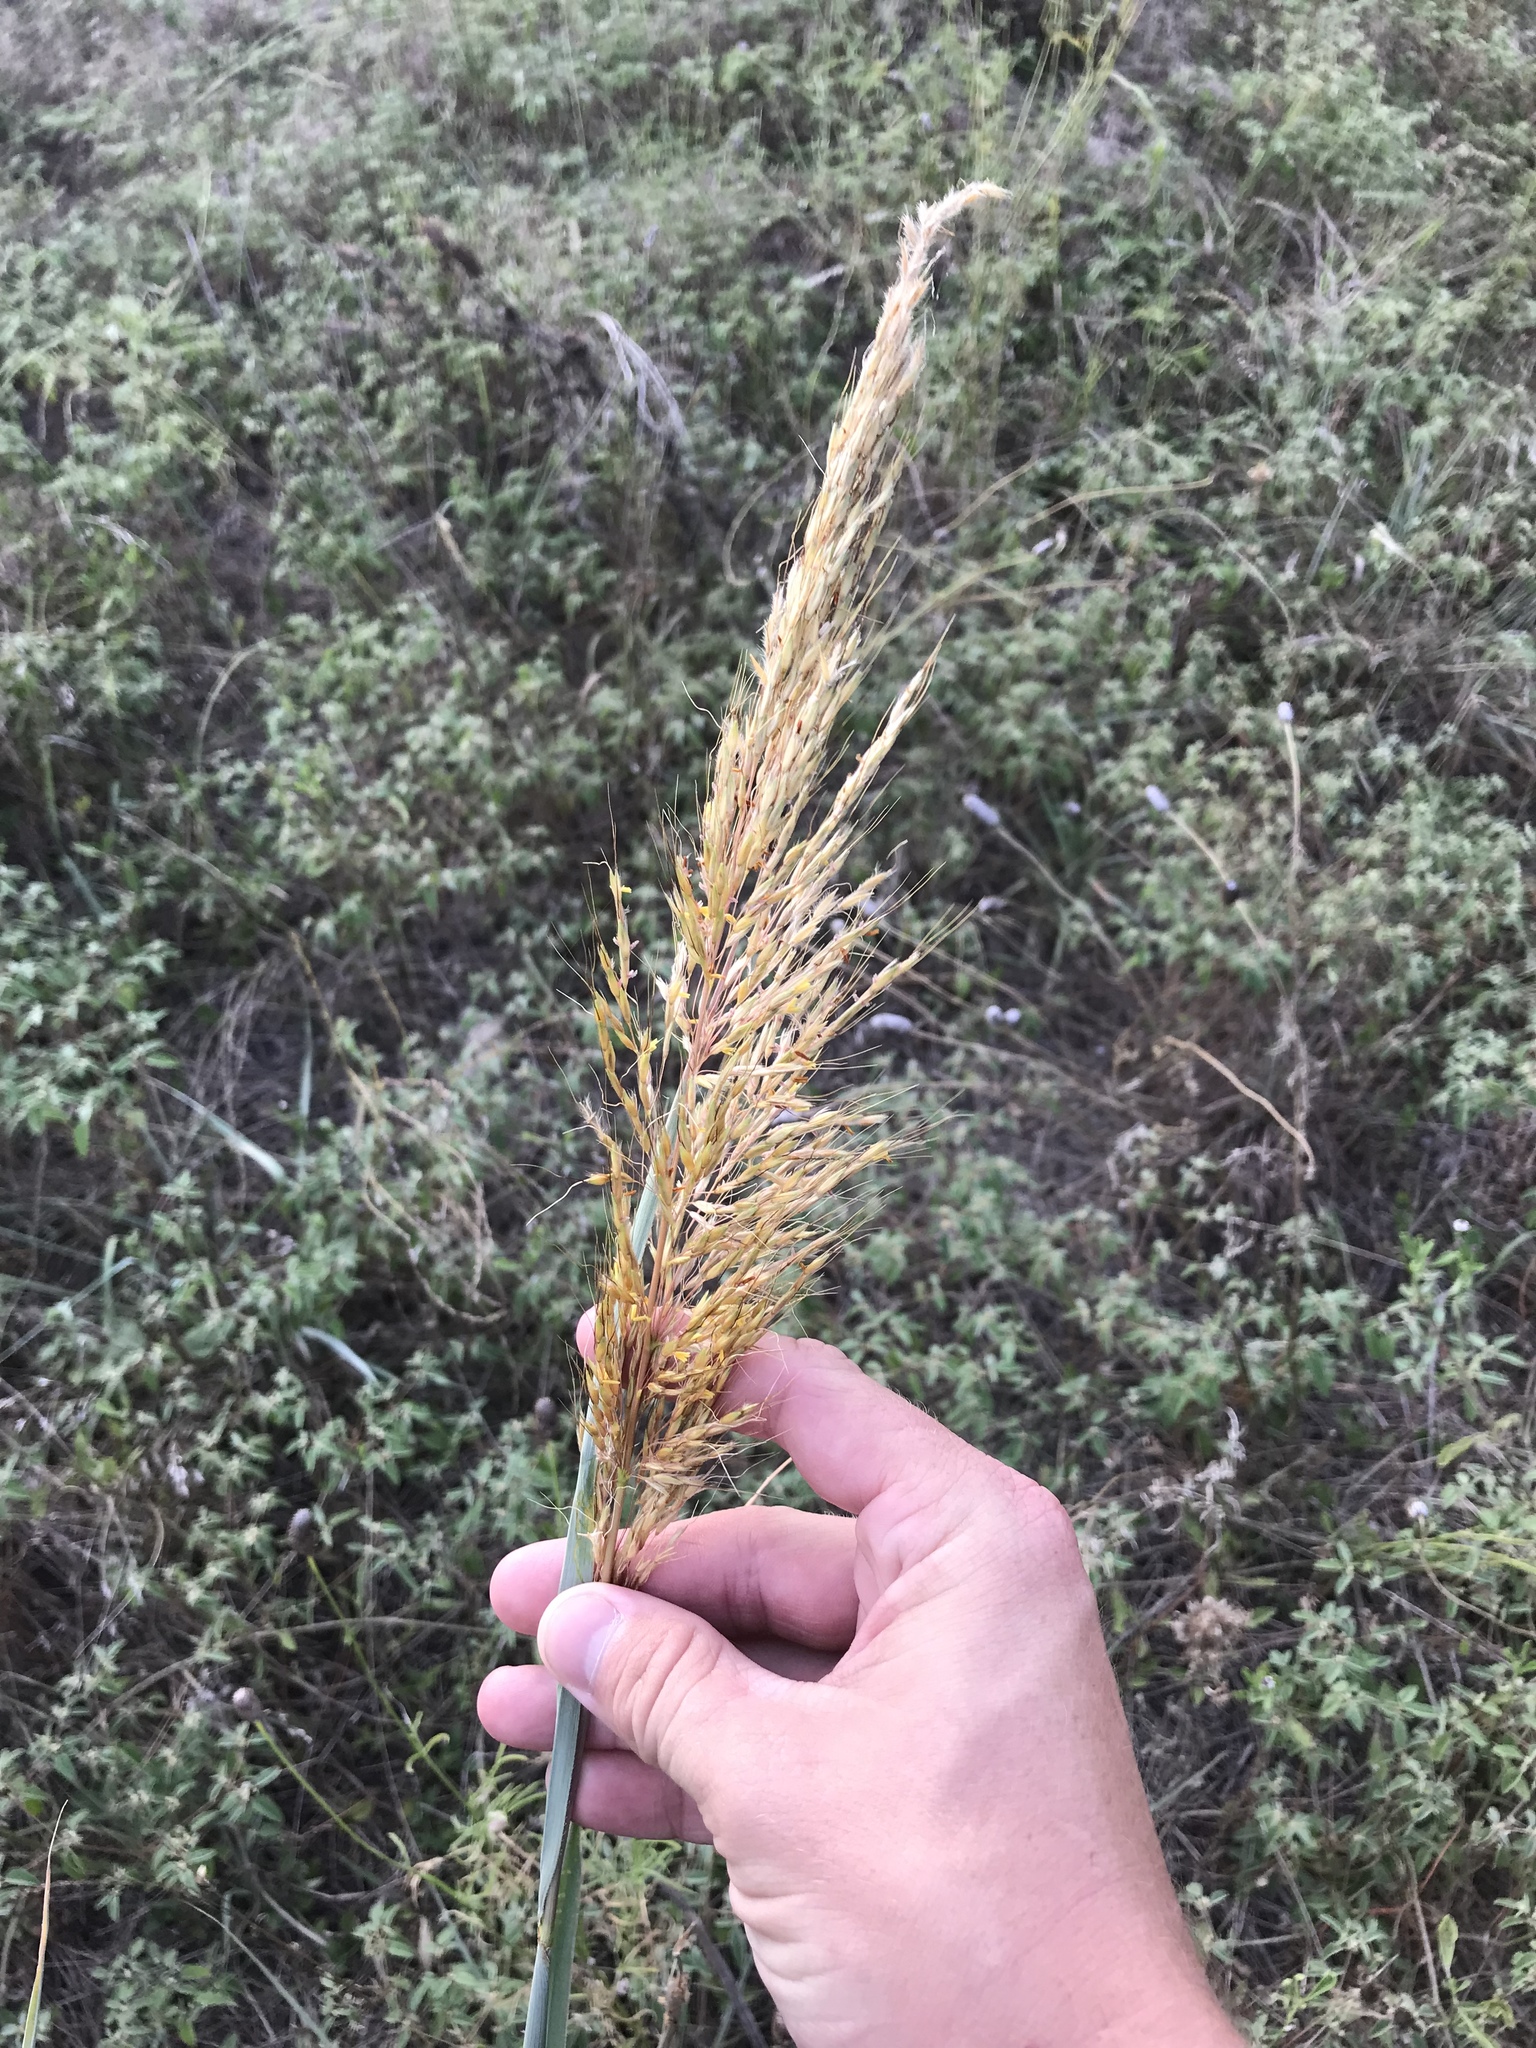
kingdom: Plantae
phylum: Tracheophyta
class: Liliopsida
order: Poales
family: Poaceae
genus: Sorghastrum
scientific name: Sorghastrum nutans
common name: Indian grass
